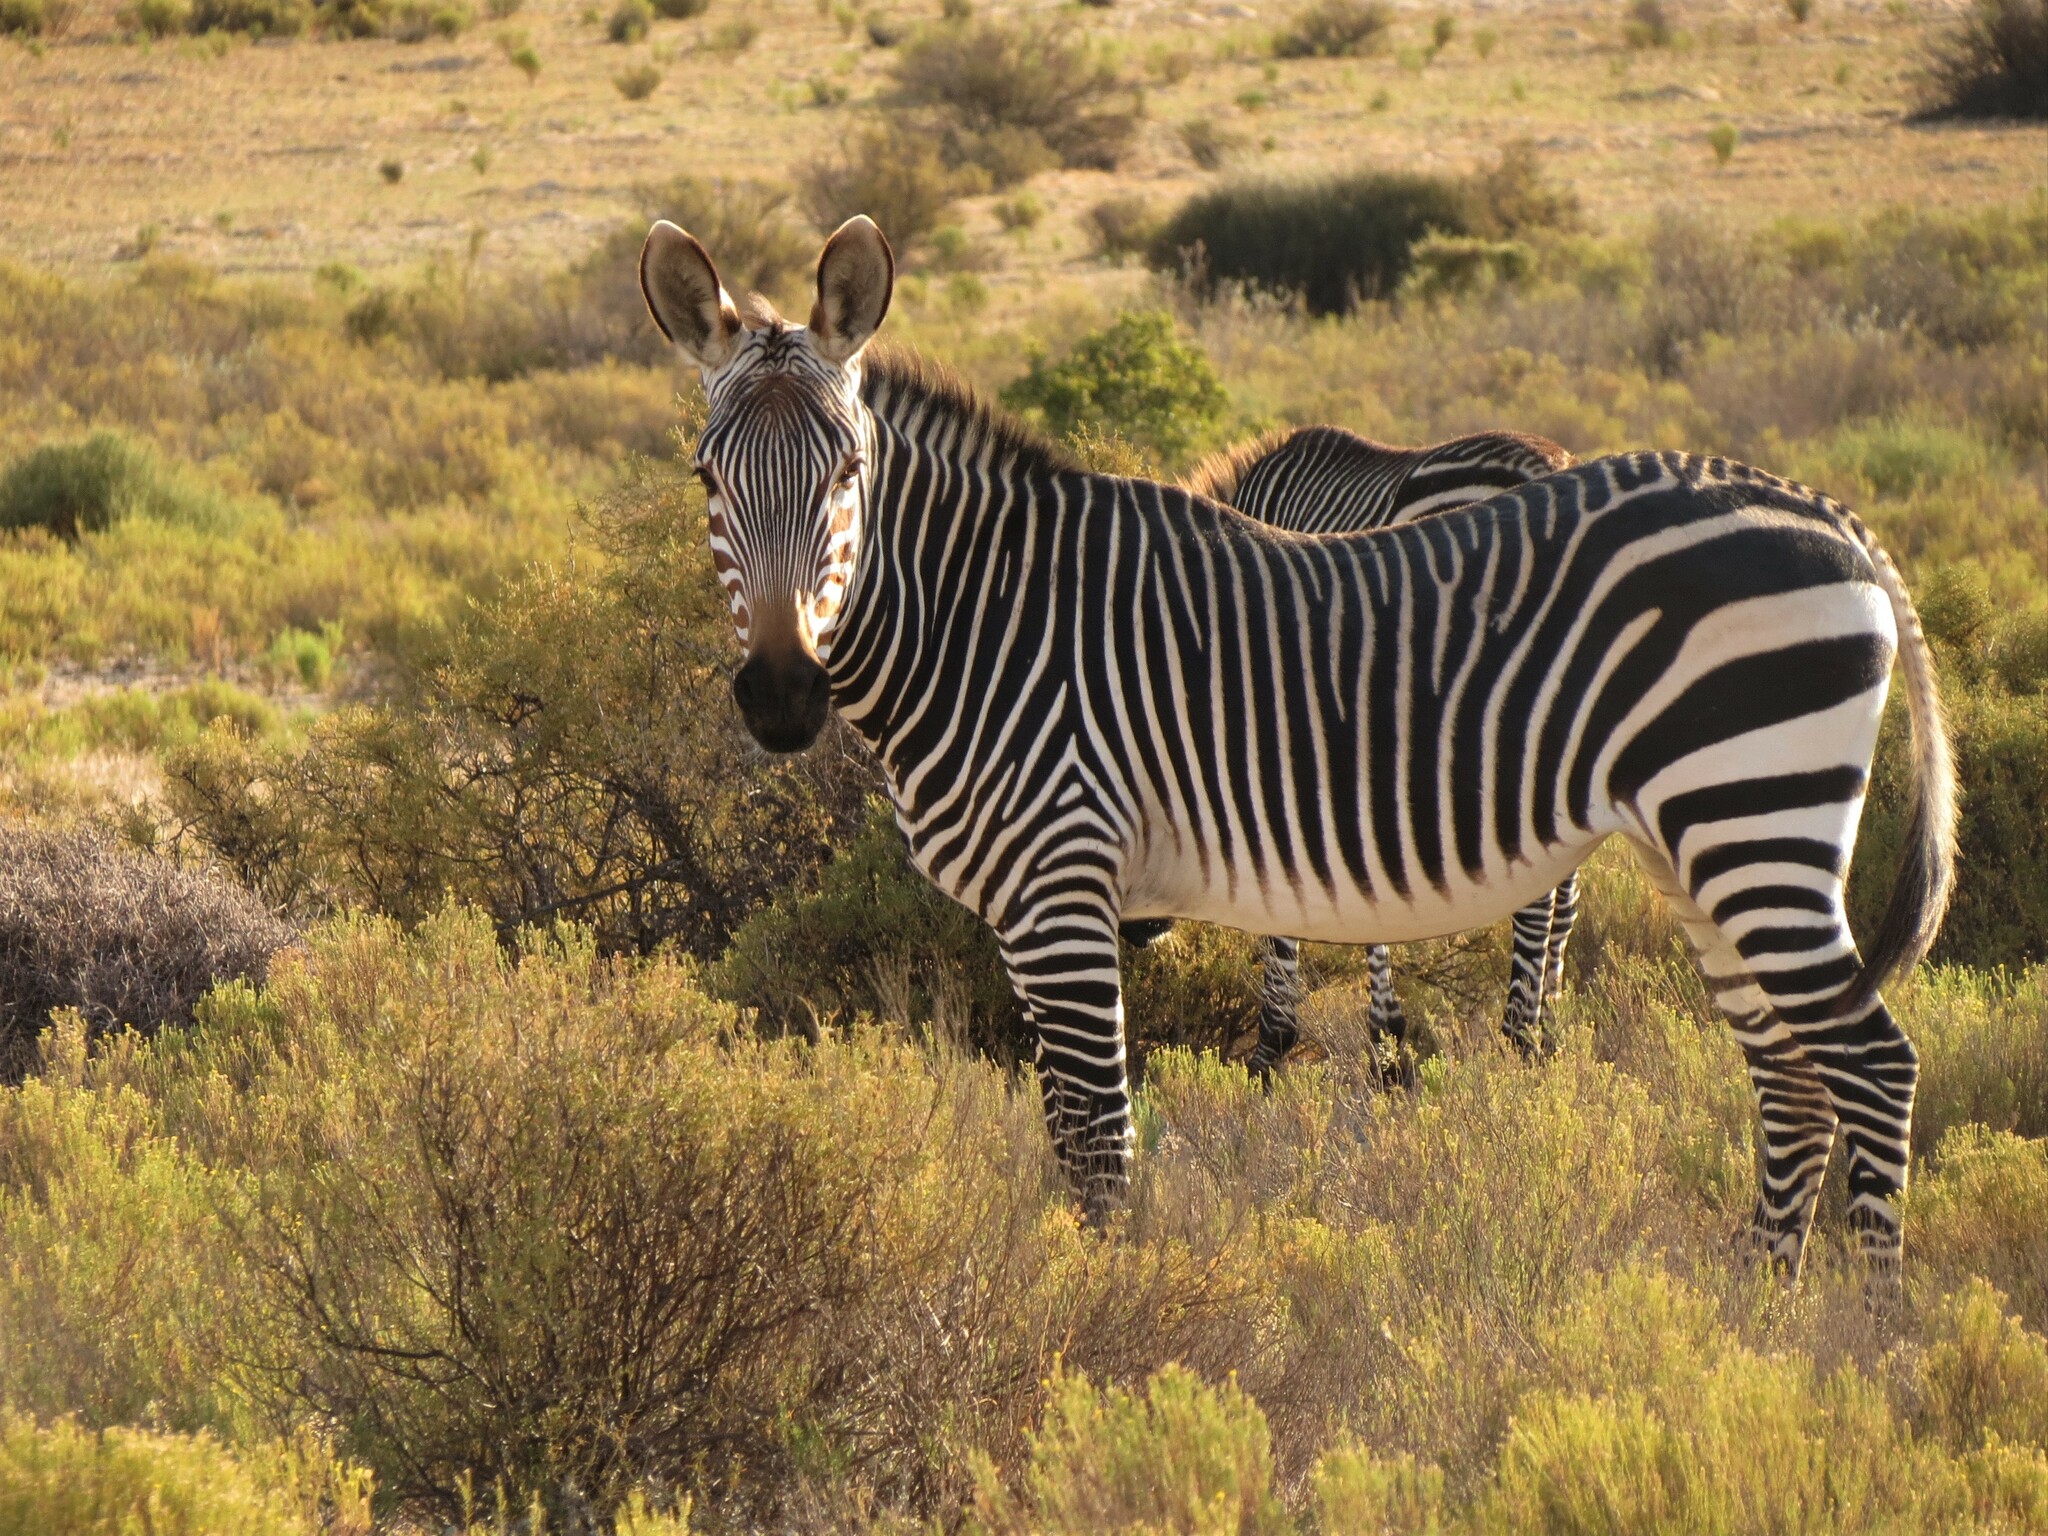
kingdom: Animalia
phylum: Chordata
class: Mammalia
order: Perissodactyla
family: Equidae
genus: Equus
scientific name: Equus zebra
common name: Mountain zebra
